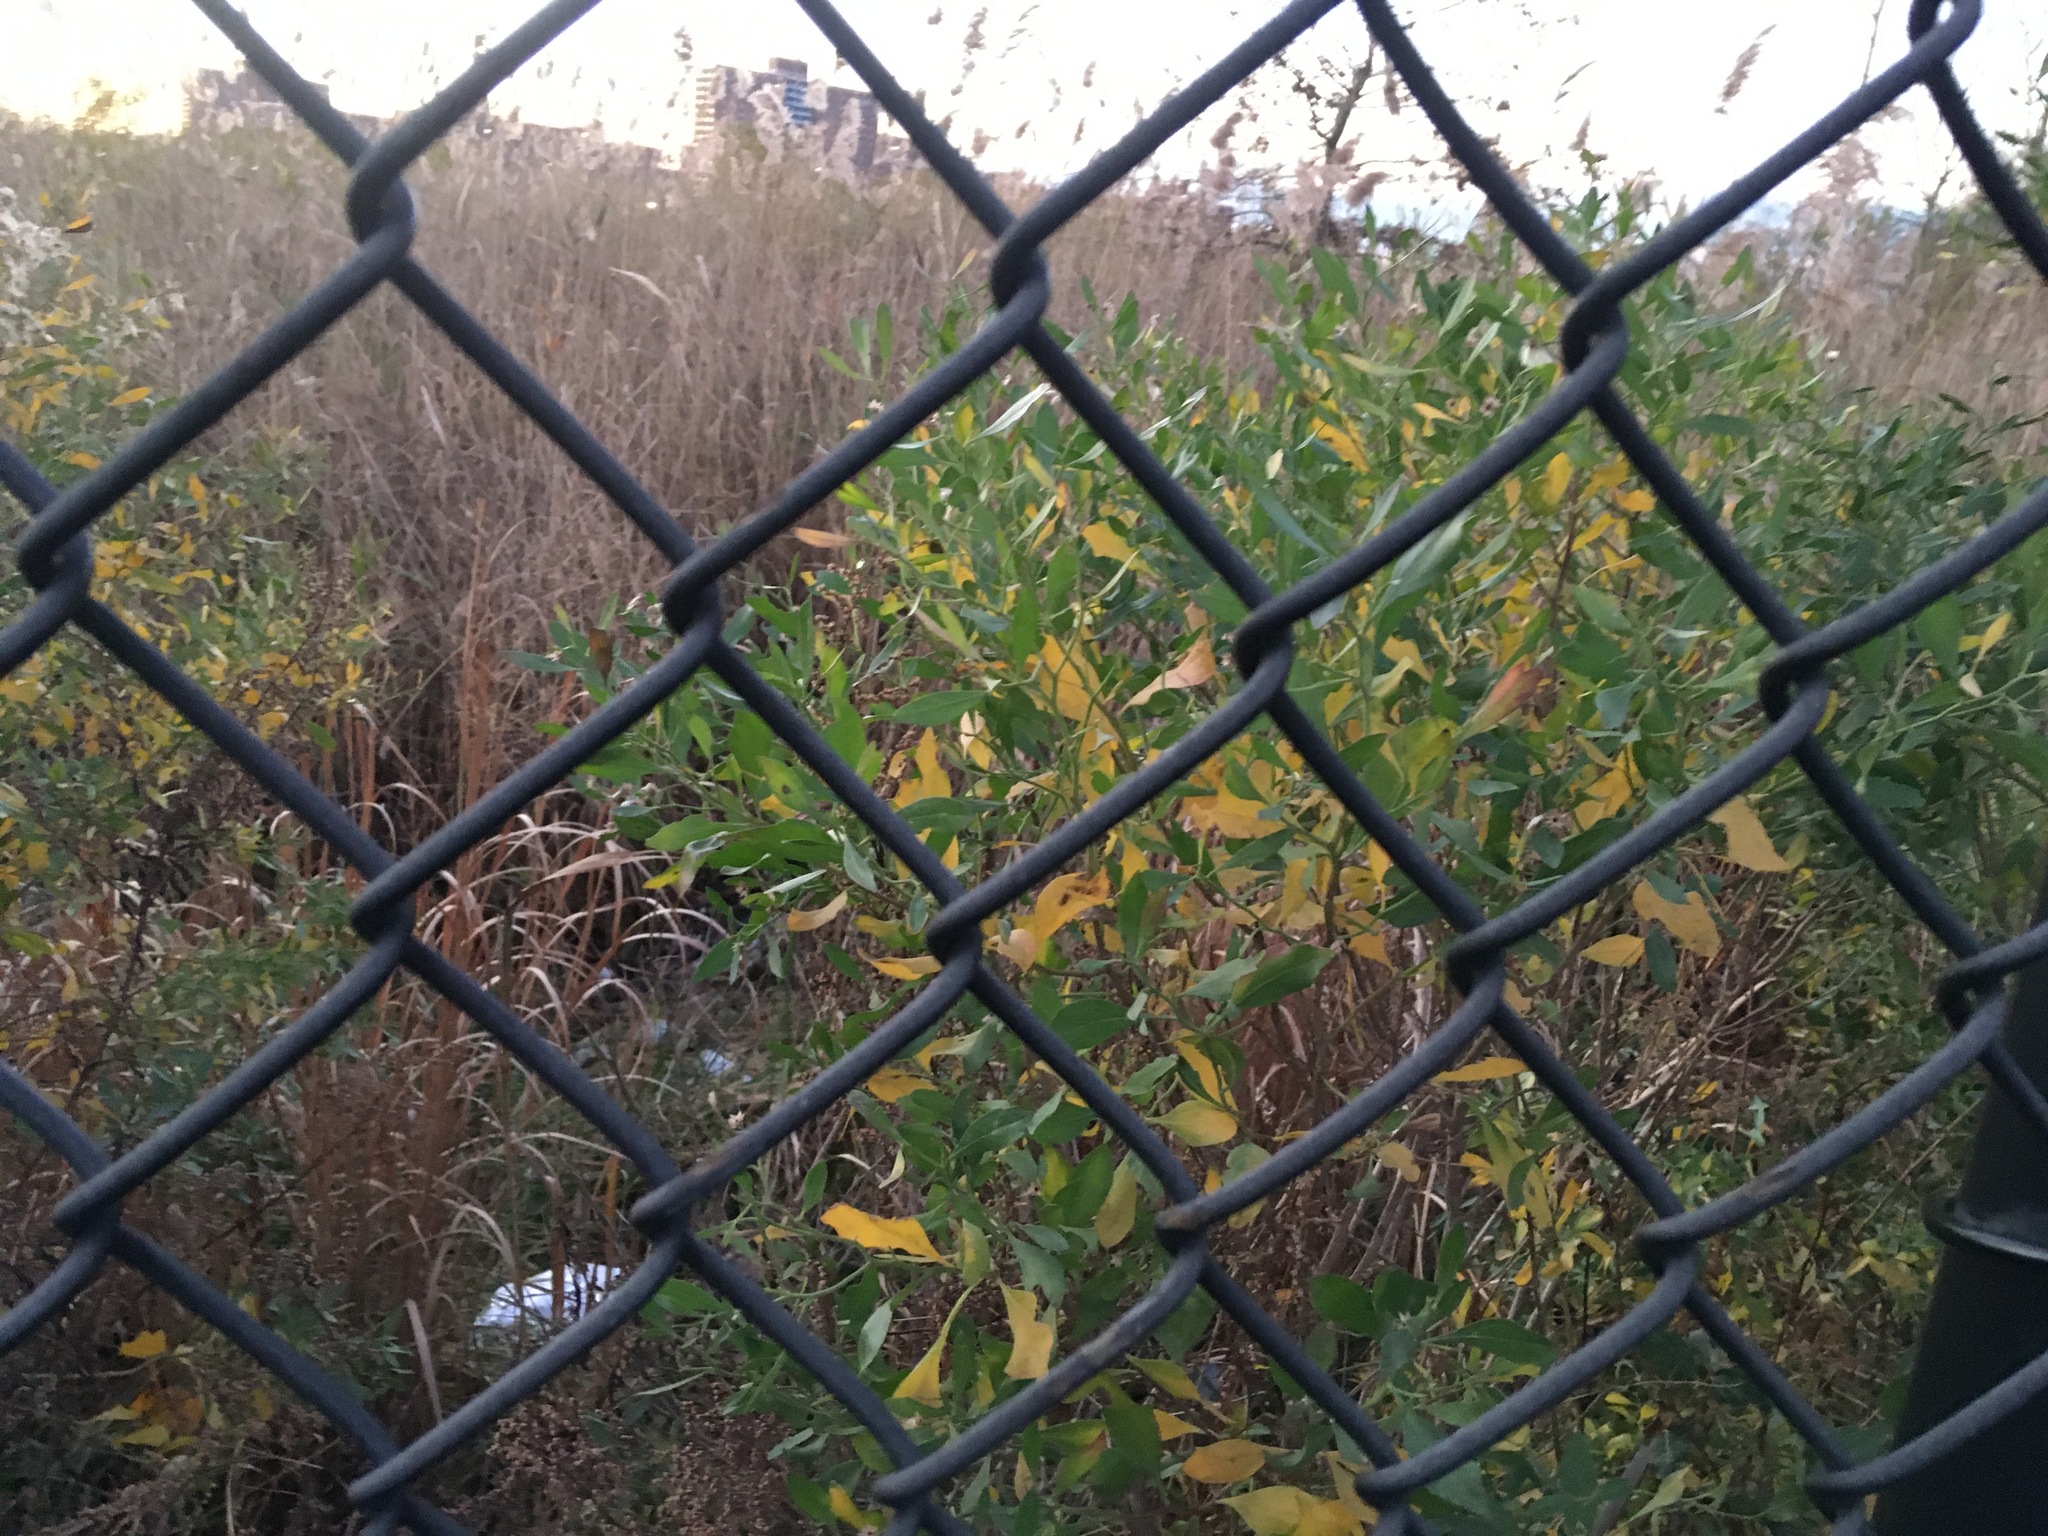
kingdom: Plantae
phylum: Tracheophyta
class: Magnoliopsida
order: Asterales
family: Asteraceae
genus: Baccharis
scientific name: Baccharis halimifolia
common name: Eastern baccharis
